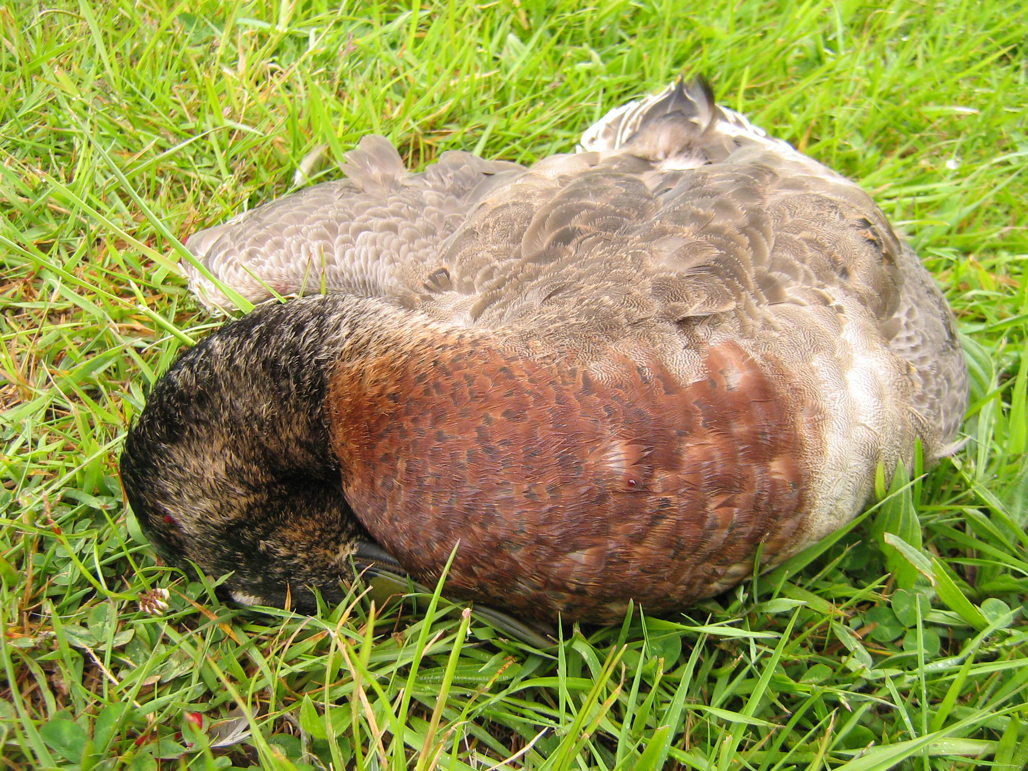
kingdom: Animalia
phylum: Chordata
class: Aves
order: Anseriformes
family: Anatidae
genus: Anas
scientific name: Anas platyrhynchos
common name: Mallard
